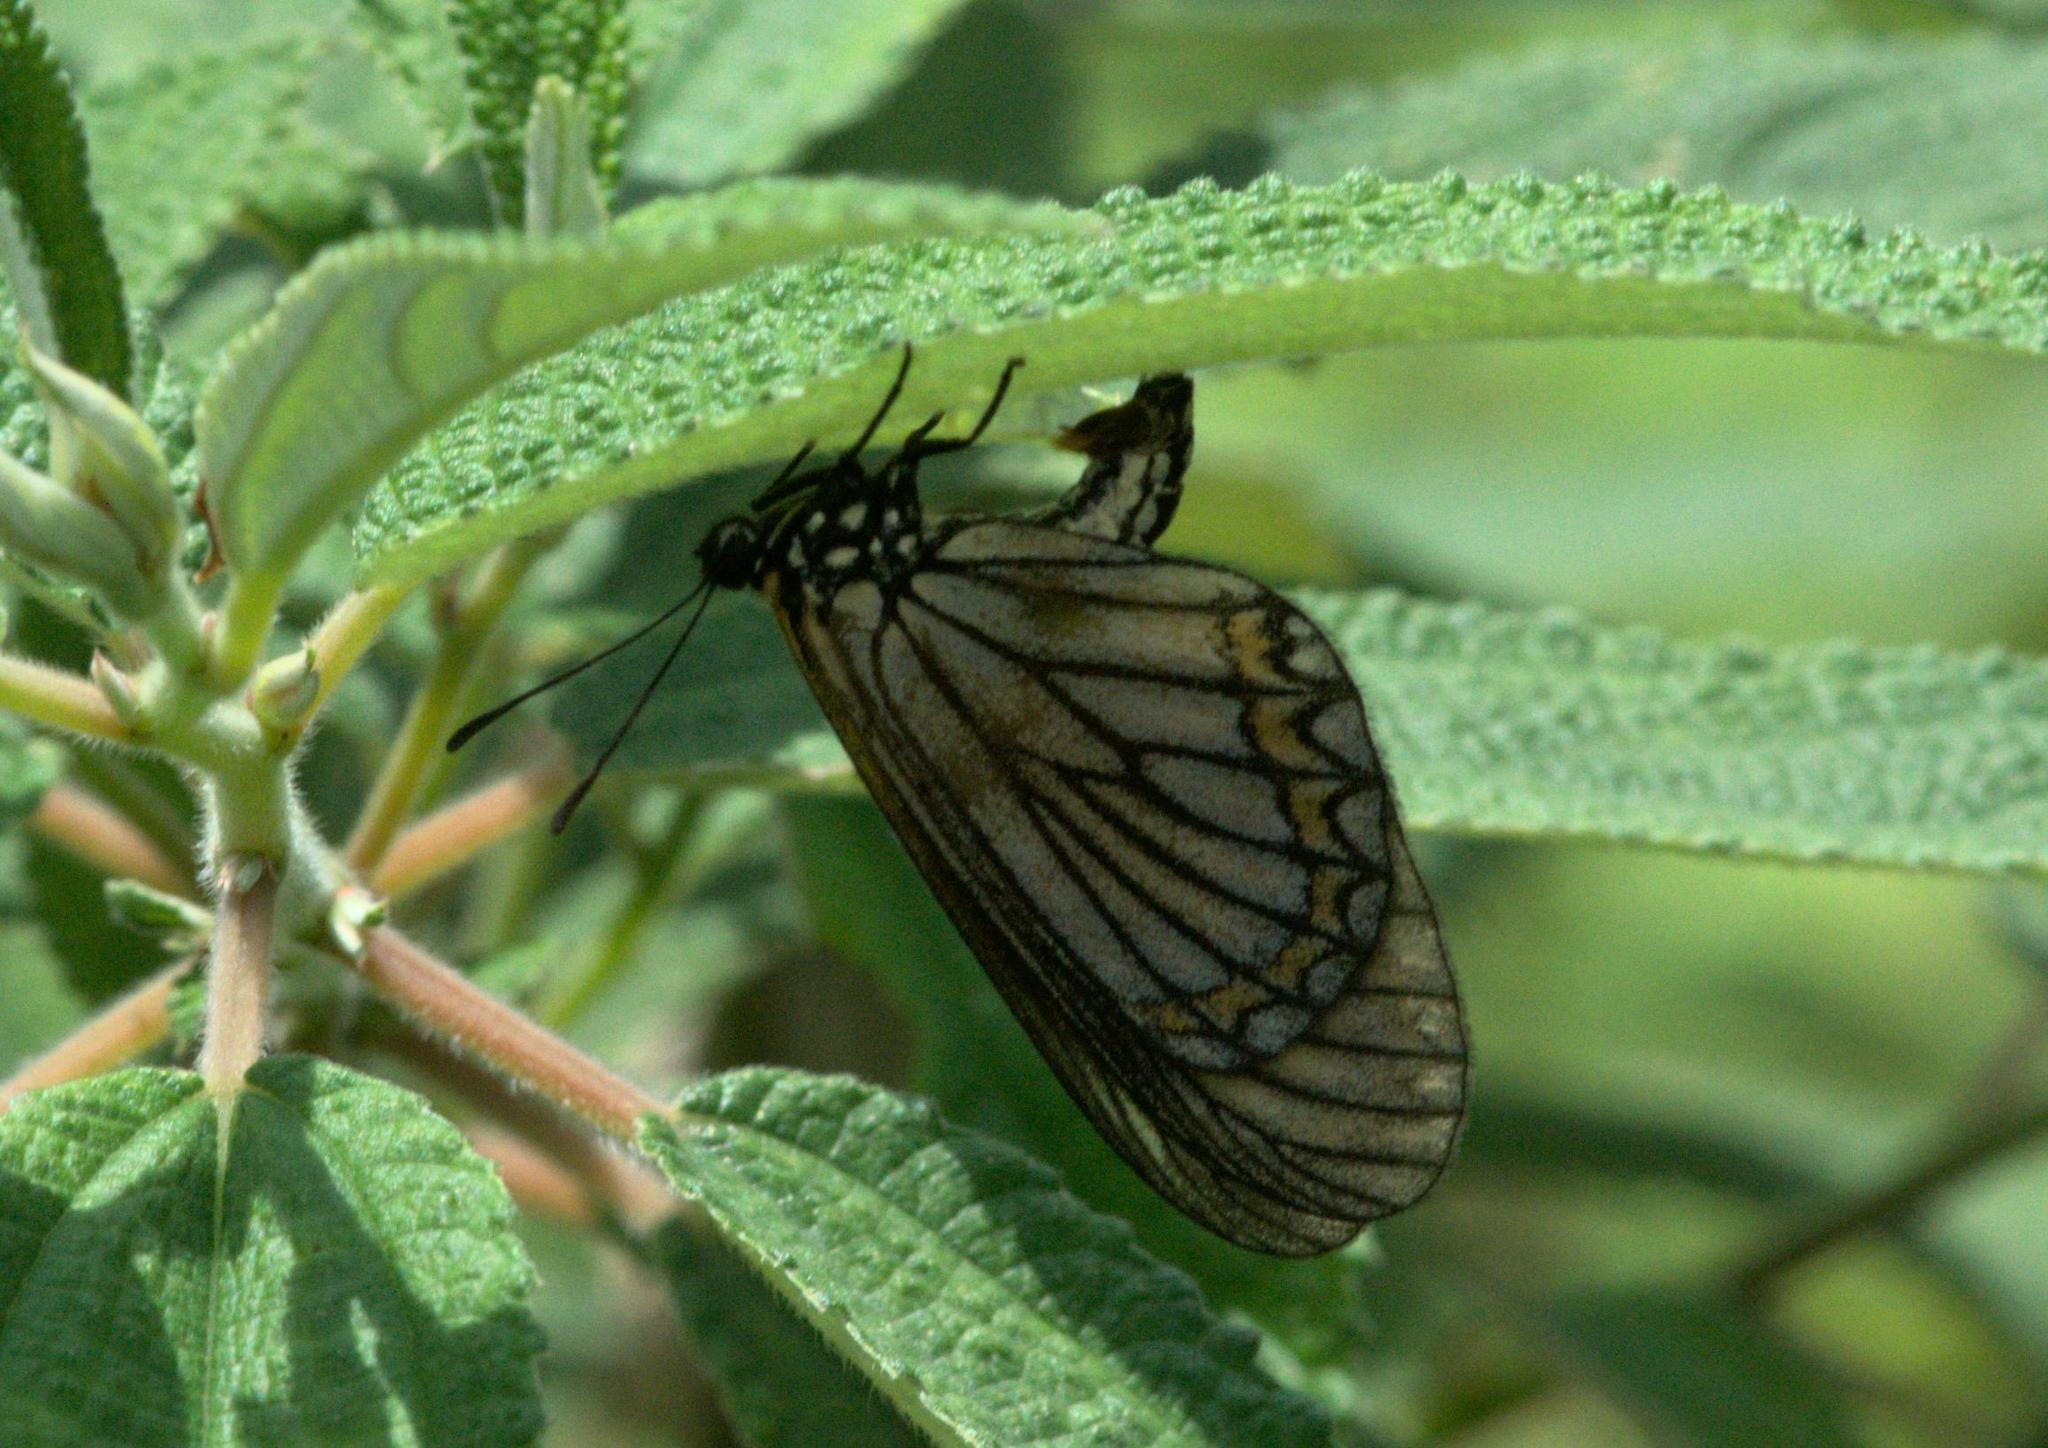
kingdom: Animalia
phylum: Arthropoda
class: Insecta
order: Lepidoptera
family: Nymphalidae
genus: Acraea
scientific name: Acraea Telchinia issoria
